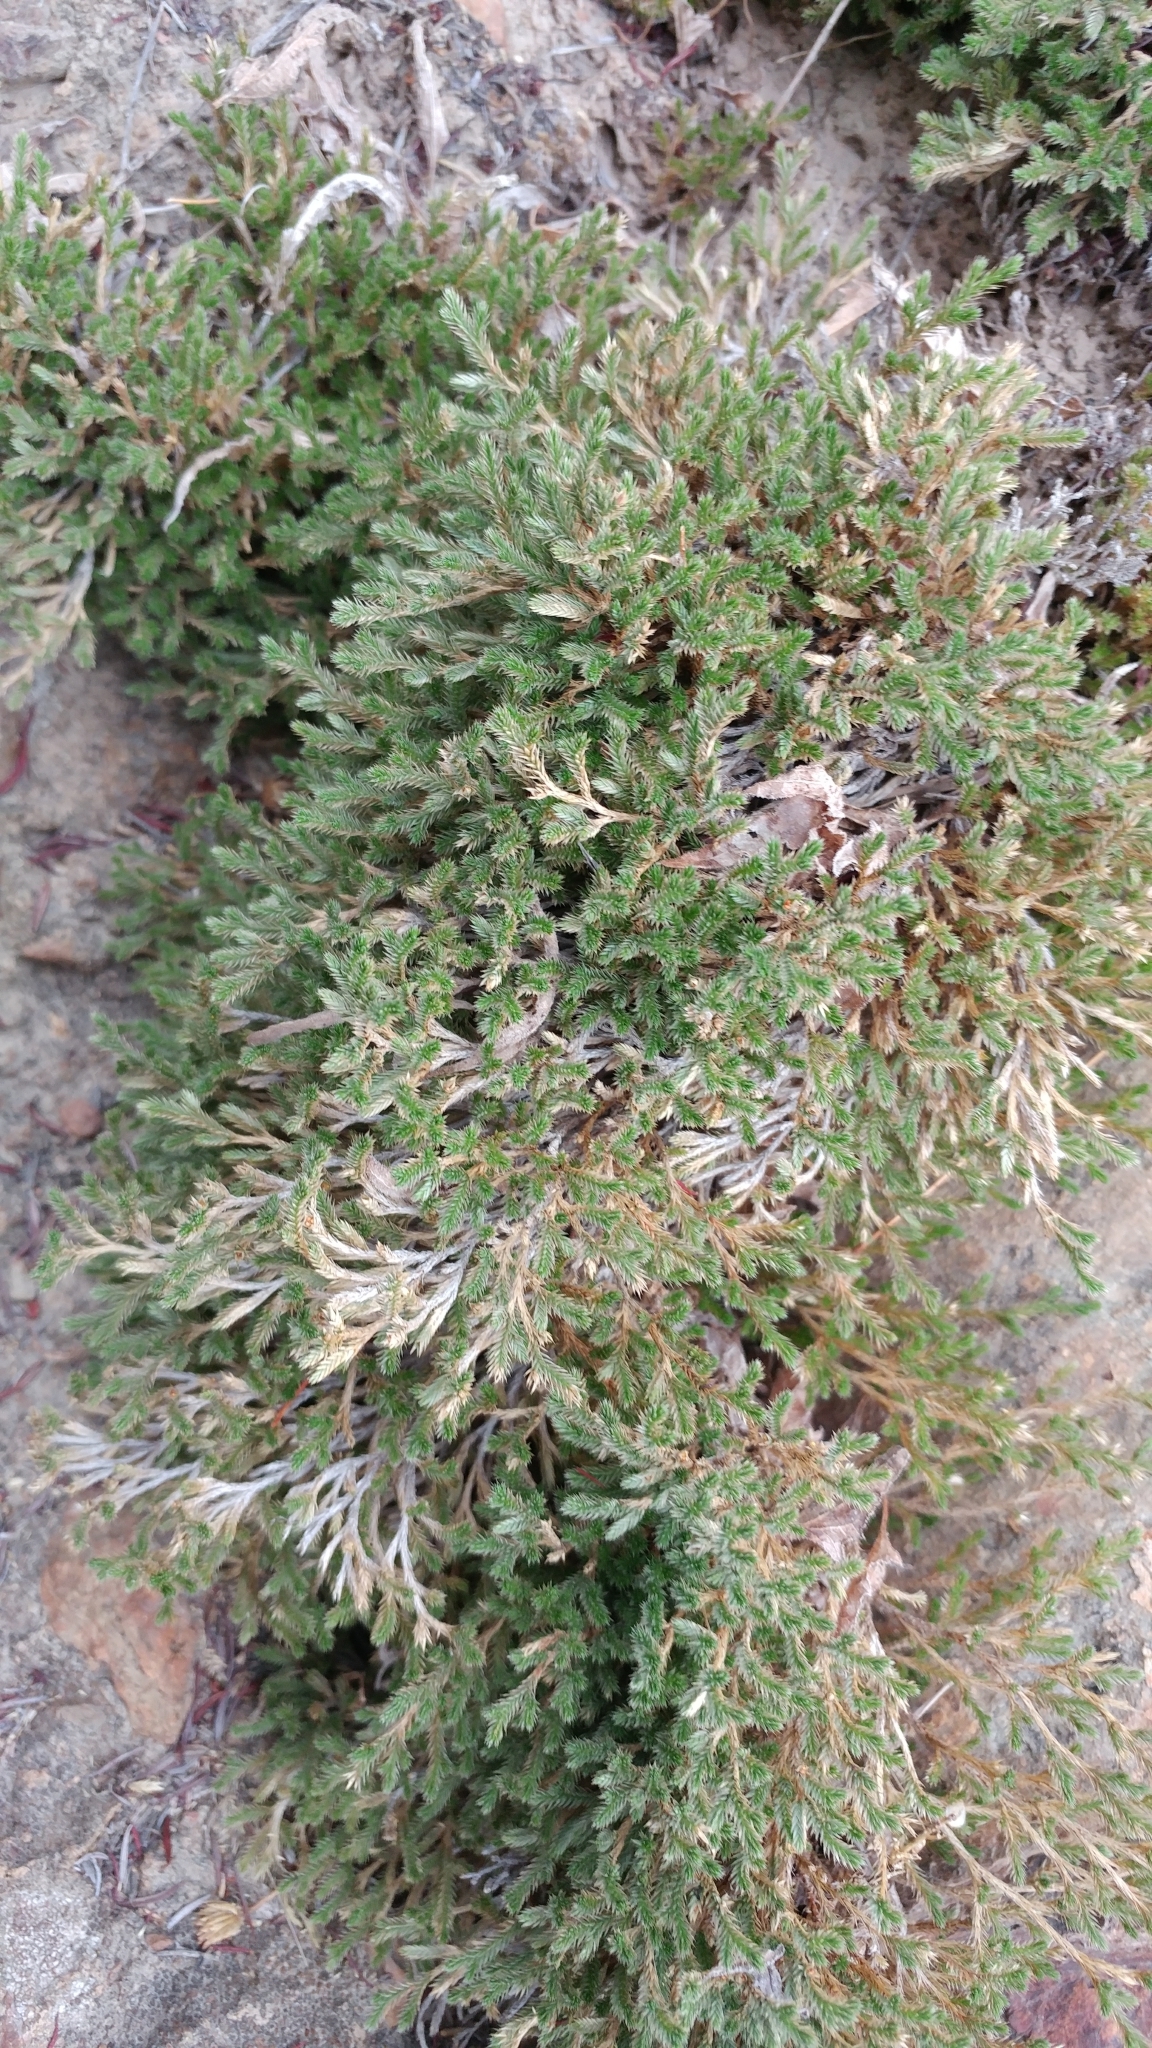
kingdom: Plantae
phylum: Tracheophyta
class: Lycopodiopsida
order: Selaginellales
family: Selaginellaceae
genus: Selaginella
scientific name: Selaginella bigelovii
